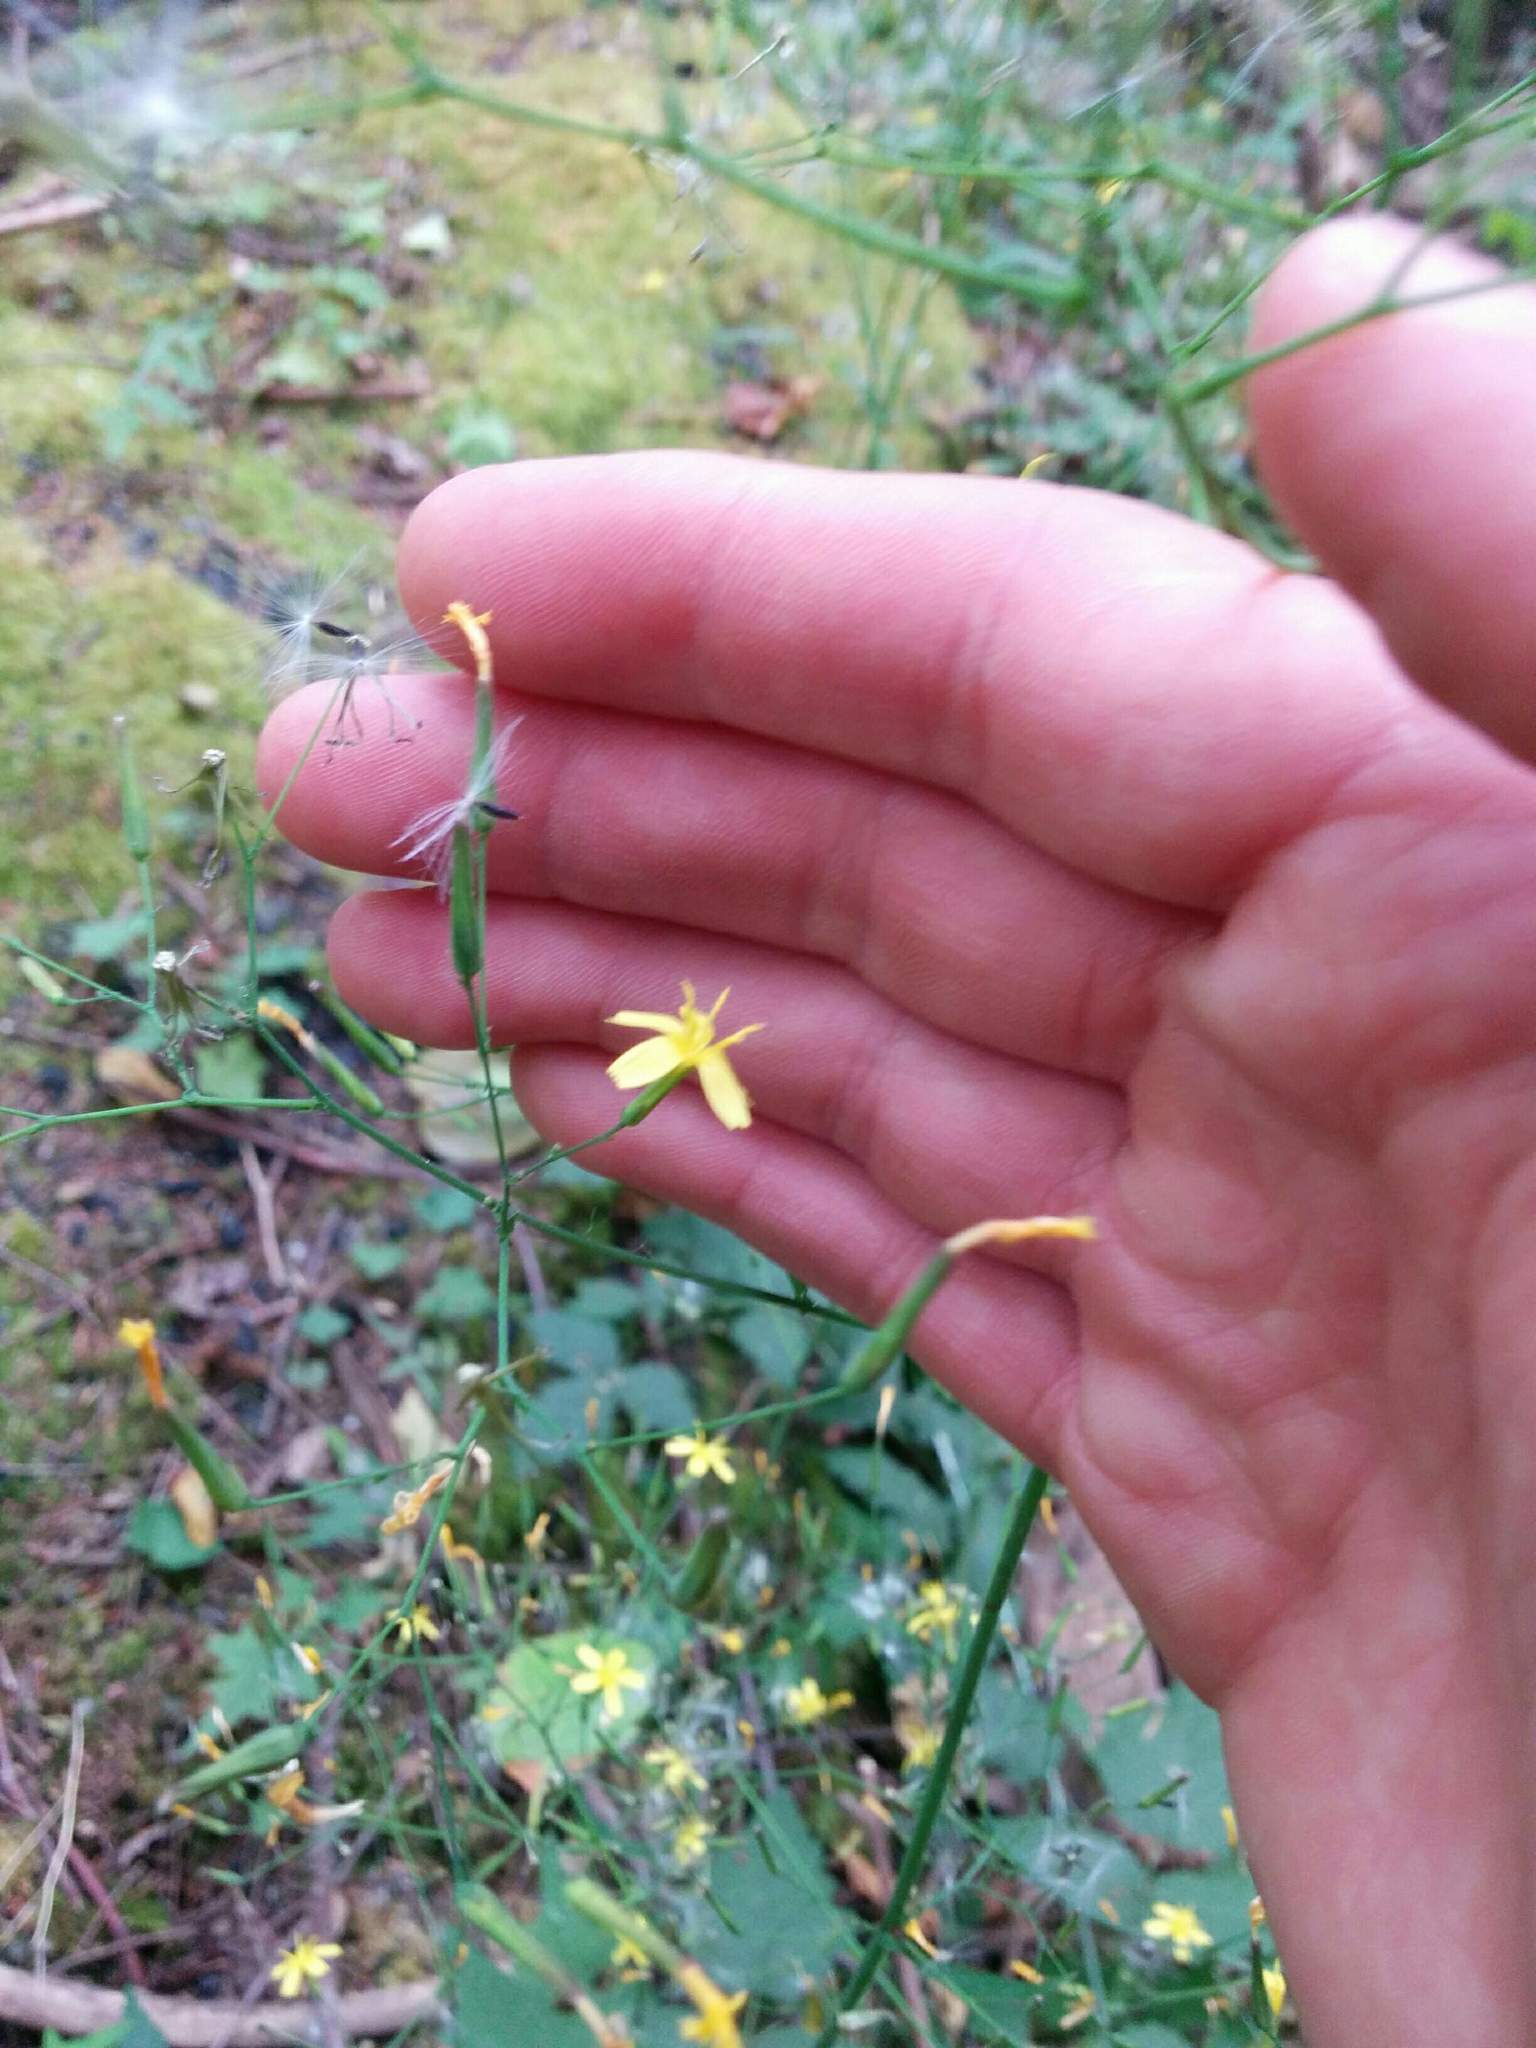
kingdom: Plantae
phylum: Tracheophyta
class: Magnoliopsida
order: Asterales
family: Asteraceae
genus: Mycelis
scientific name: Mycelis muralis
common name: Wall lettuce
